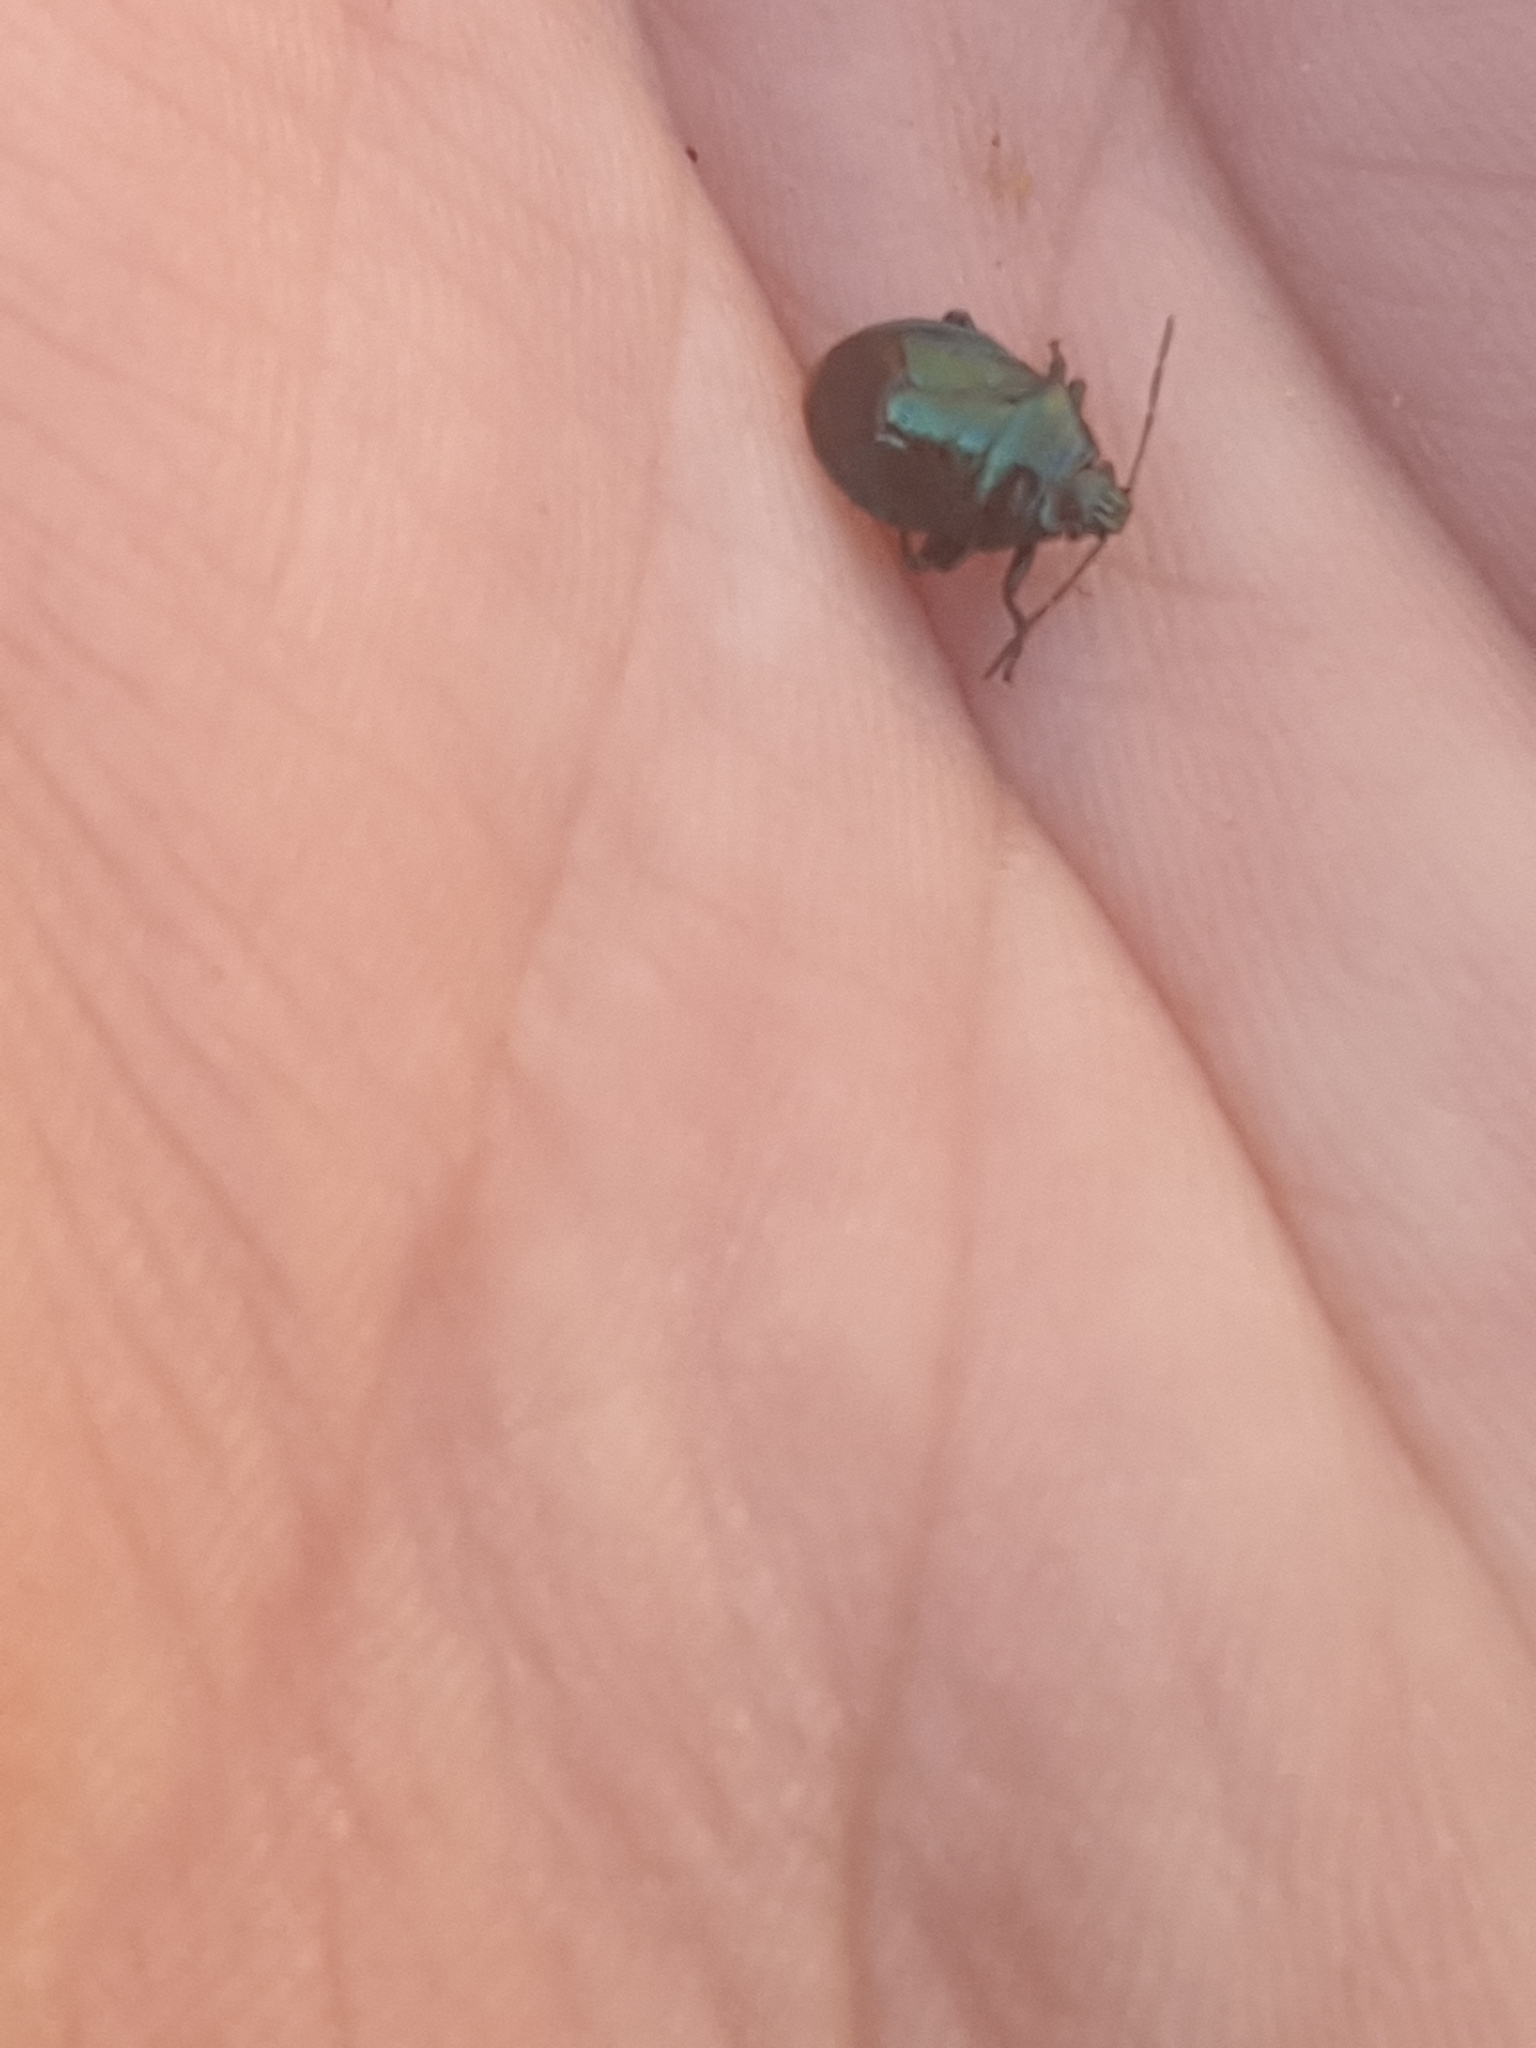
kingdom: Animalia
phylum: Arthropoda
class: Insecta
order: Hemiptera
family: Pentatomidae
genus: Zicrona
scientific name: Zicrona caerulea
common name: Blue shieldbug
